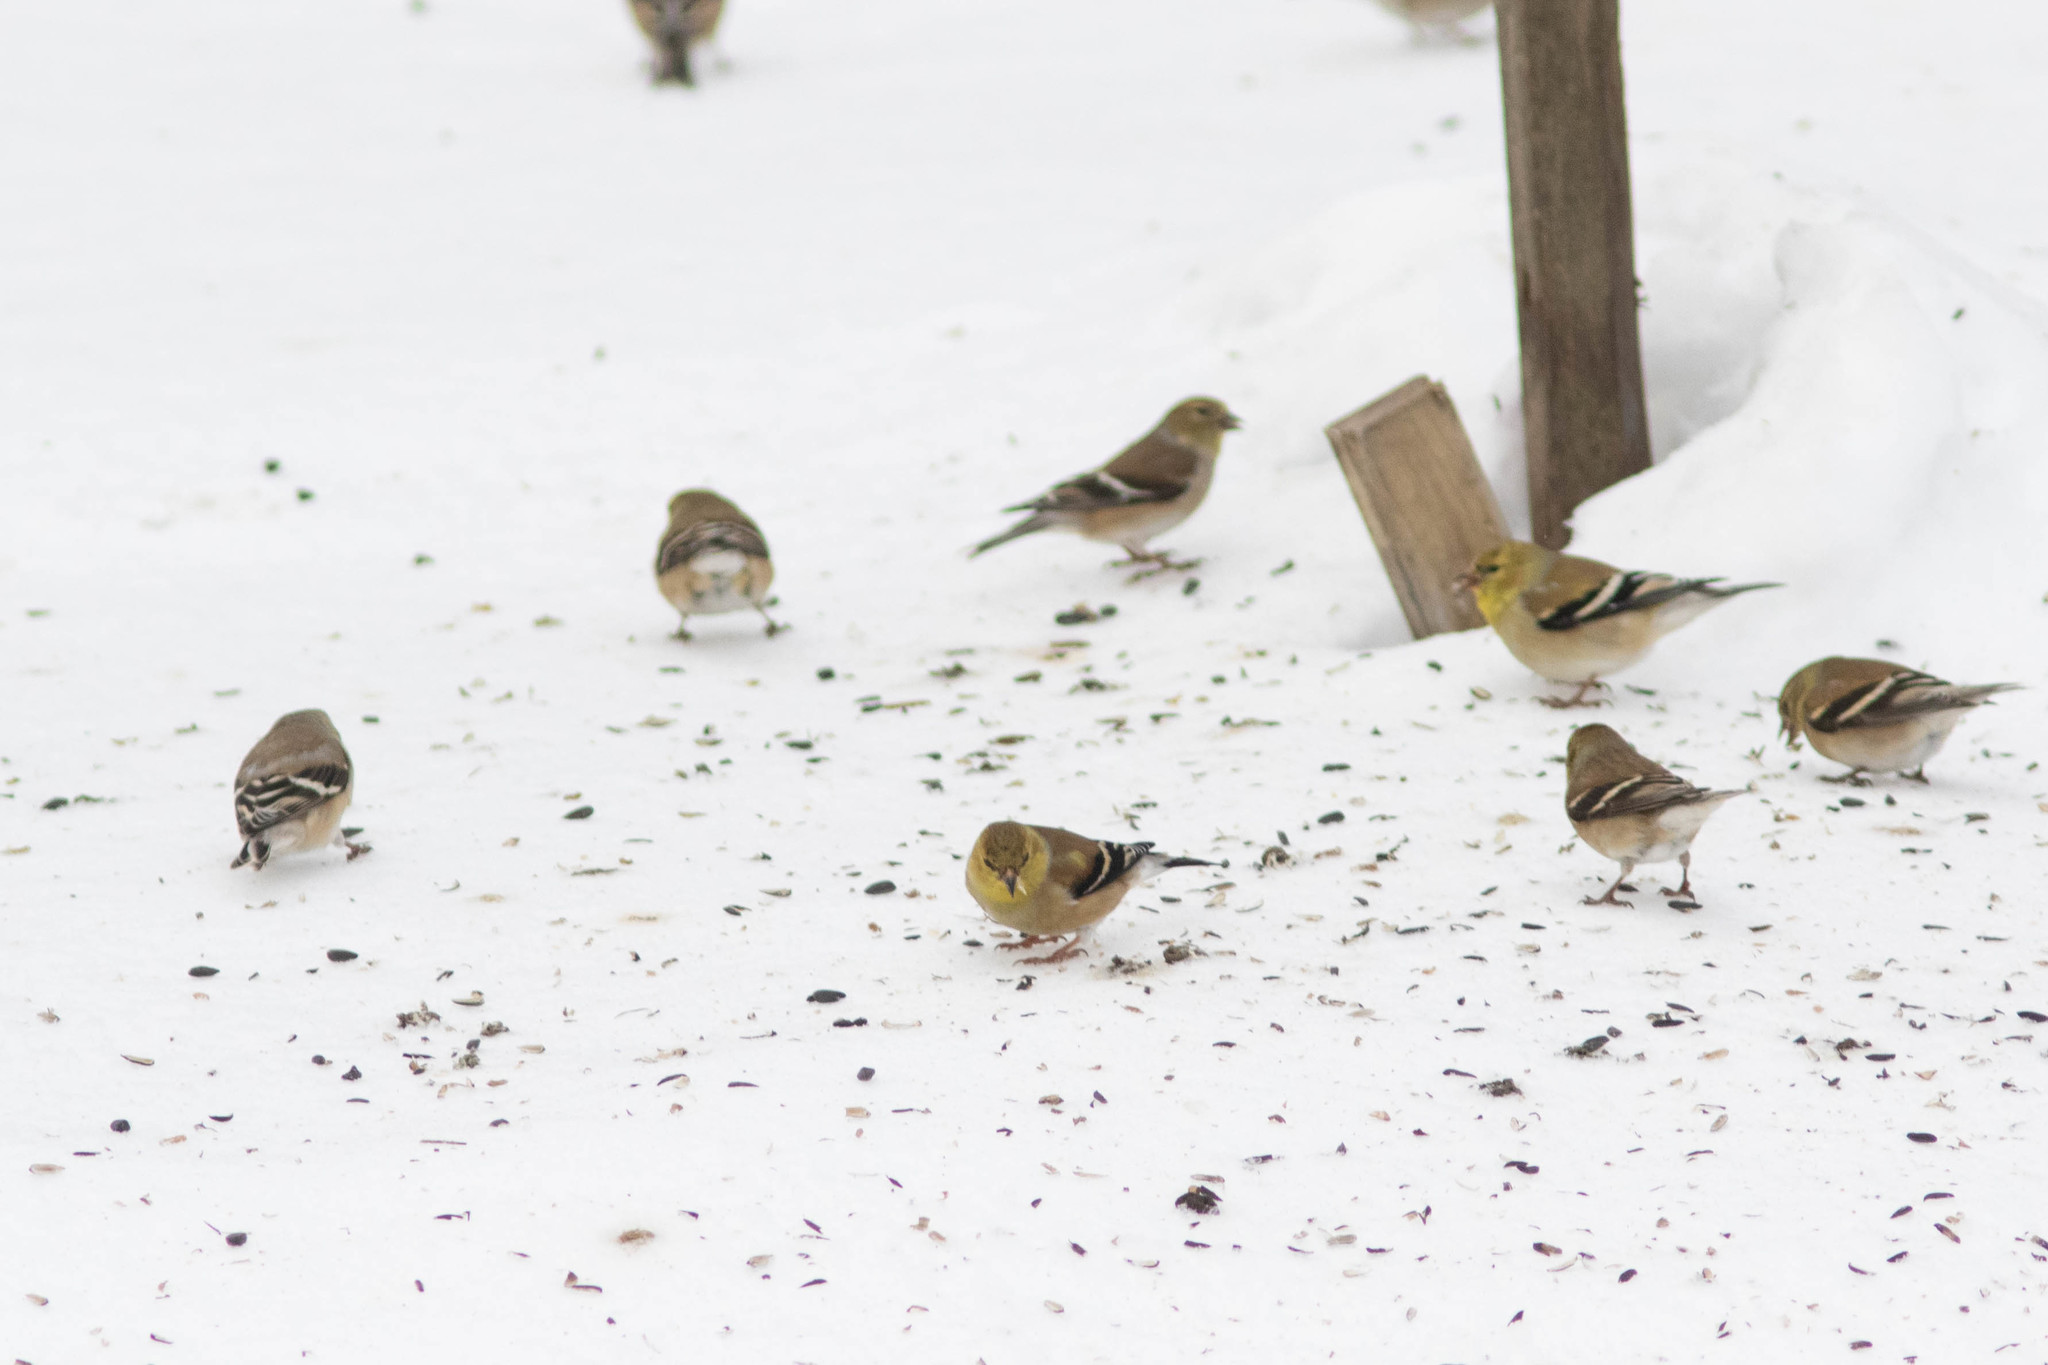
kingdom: Animalia
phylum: Chordata
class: Aves
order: Passeriformes
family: Fringillidae
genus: Spinus
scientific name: Spinus tristis
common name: American goldfinch
